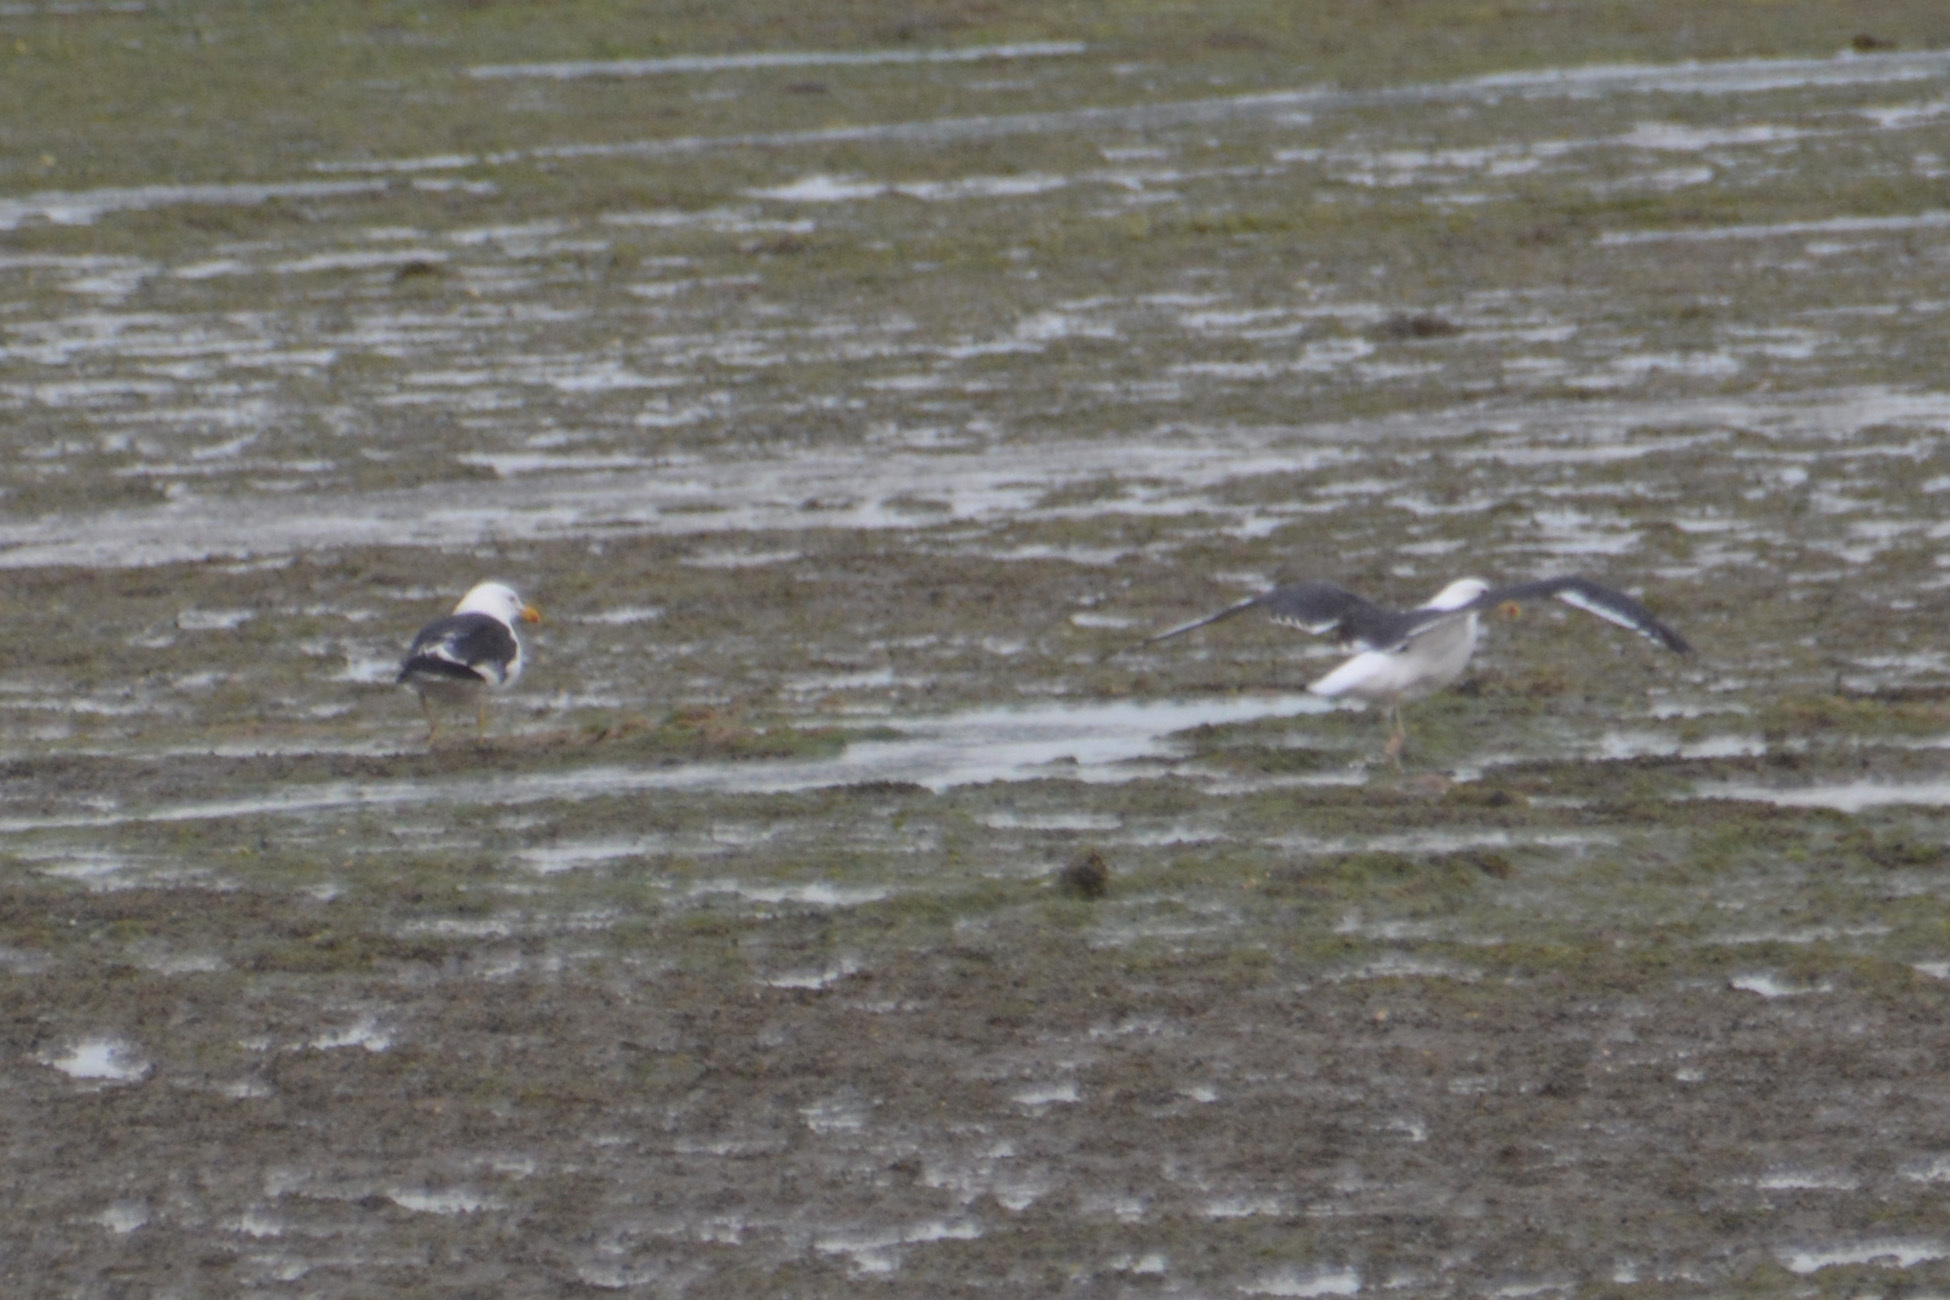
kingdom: Animalia
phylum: Chordata
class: Aves
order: Charadriiformes
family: Laridae
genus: Larus
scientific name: Larus dominicanus
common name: Kelp gull
